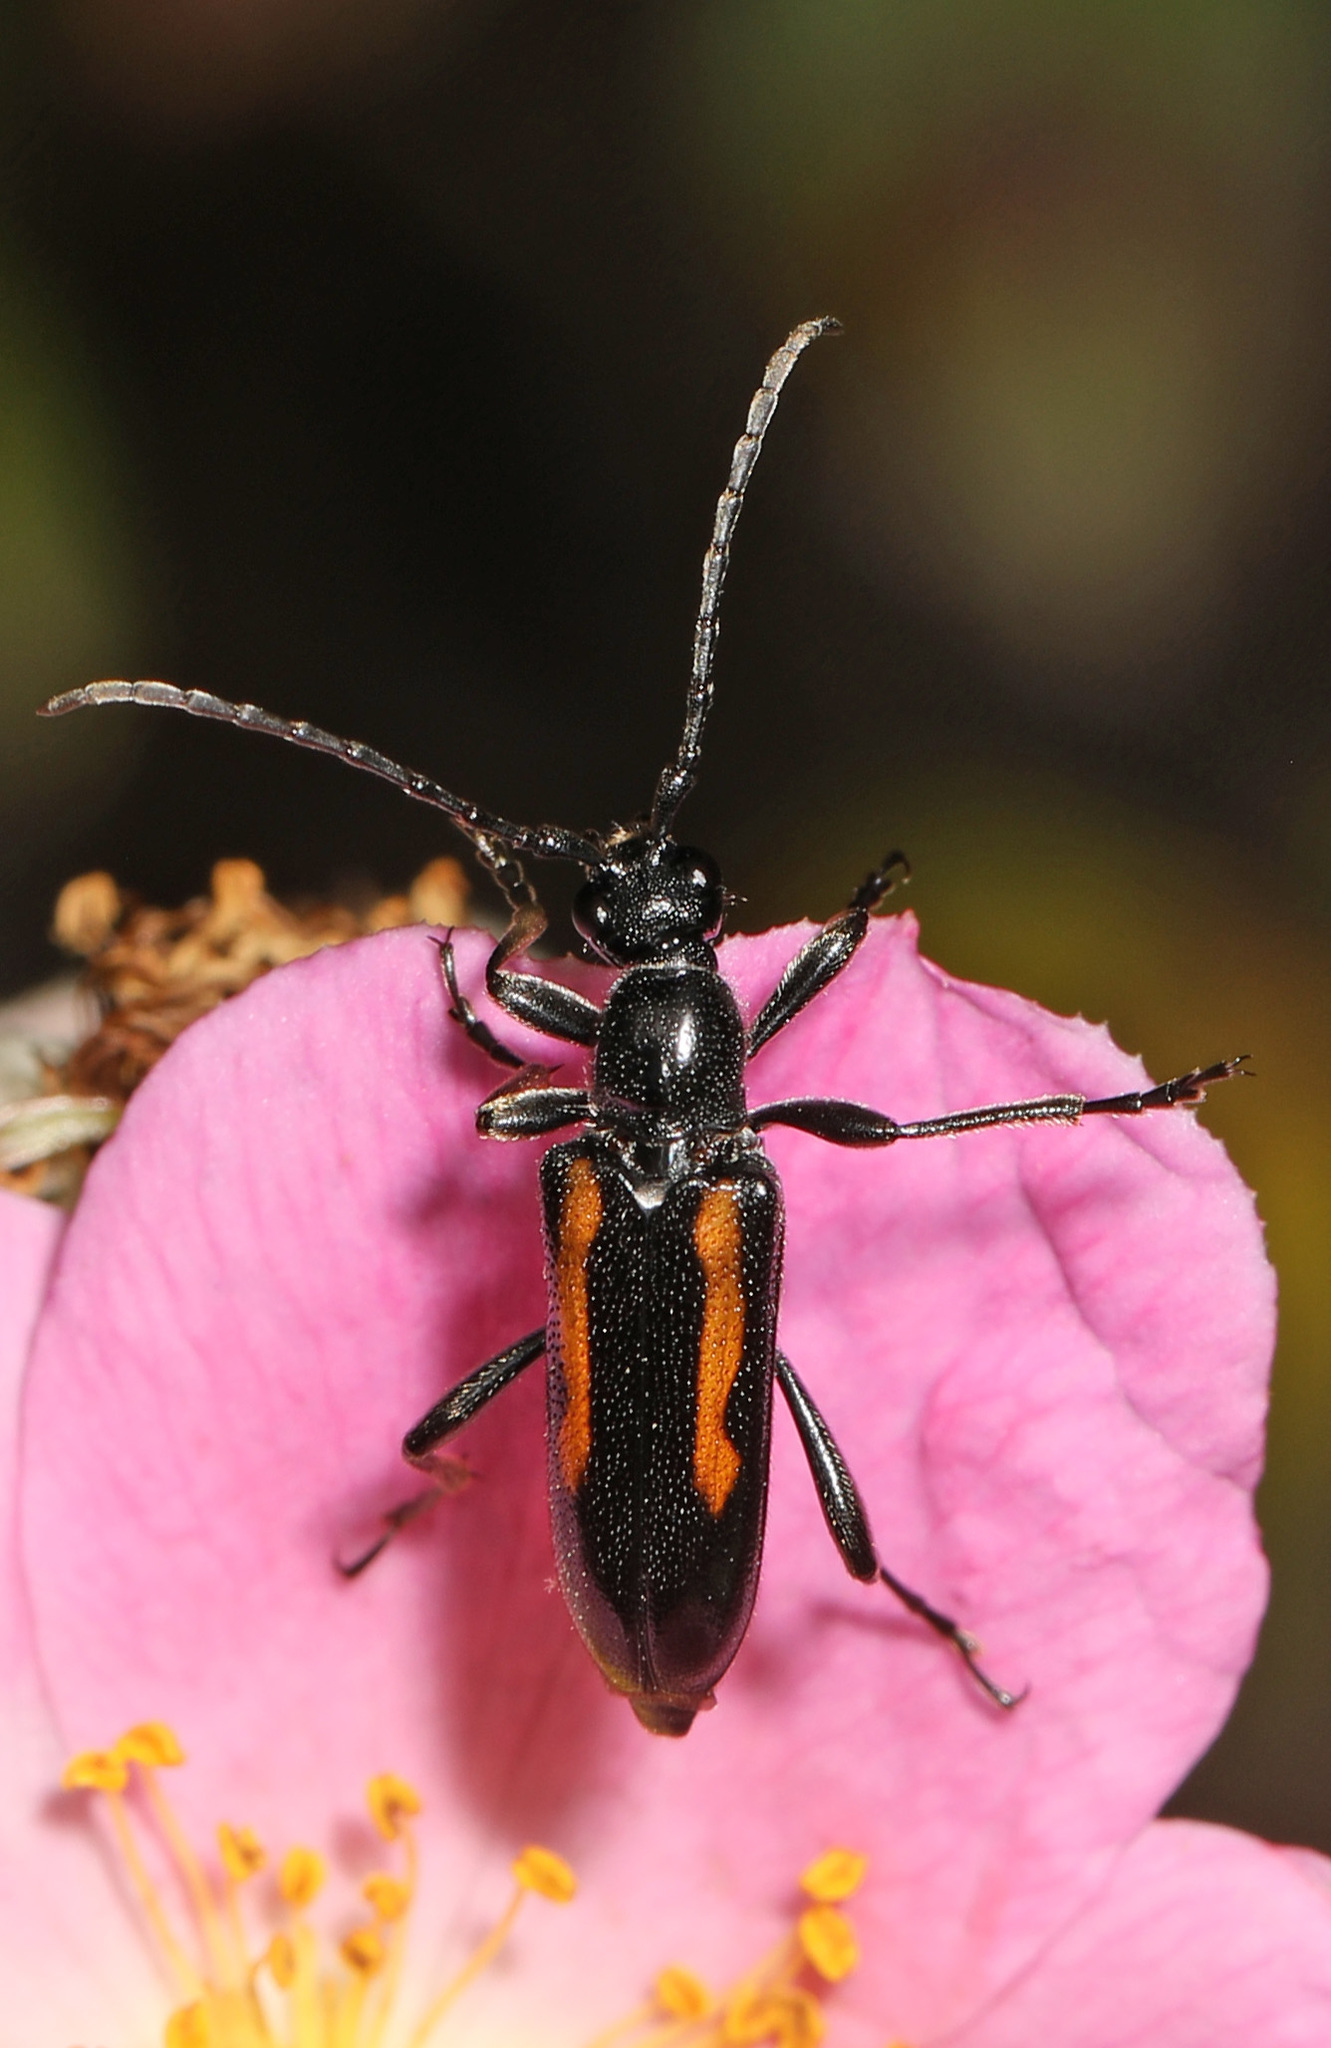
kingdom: Animalia
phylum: Arthropoda
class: Insecta
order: Coleoptera
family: Cerambycidae
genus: Strangalepta
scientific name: Strangalepta abbreviata
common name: Strangalepta flower longhorn beetle
